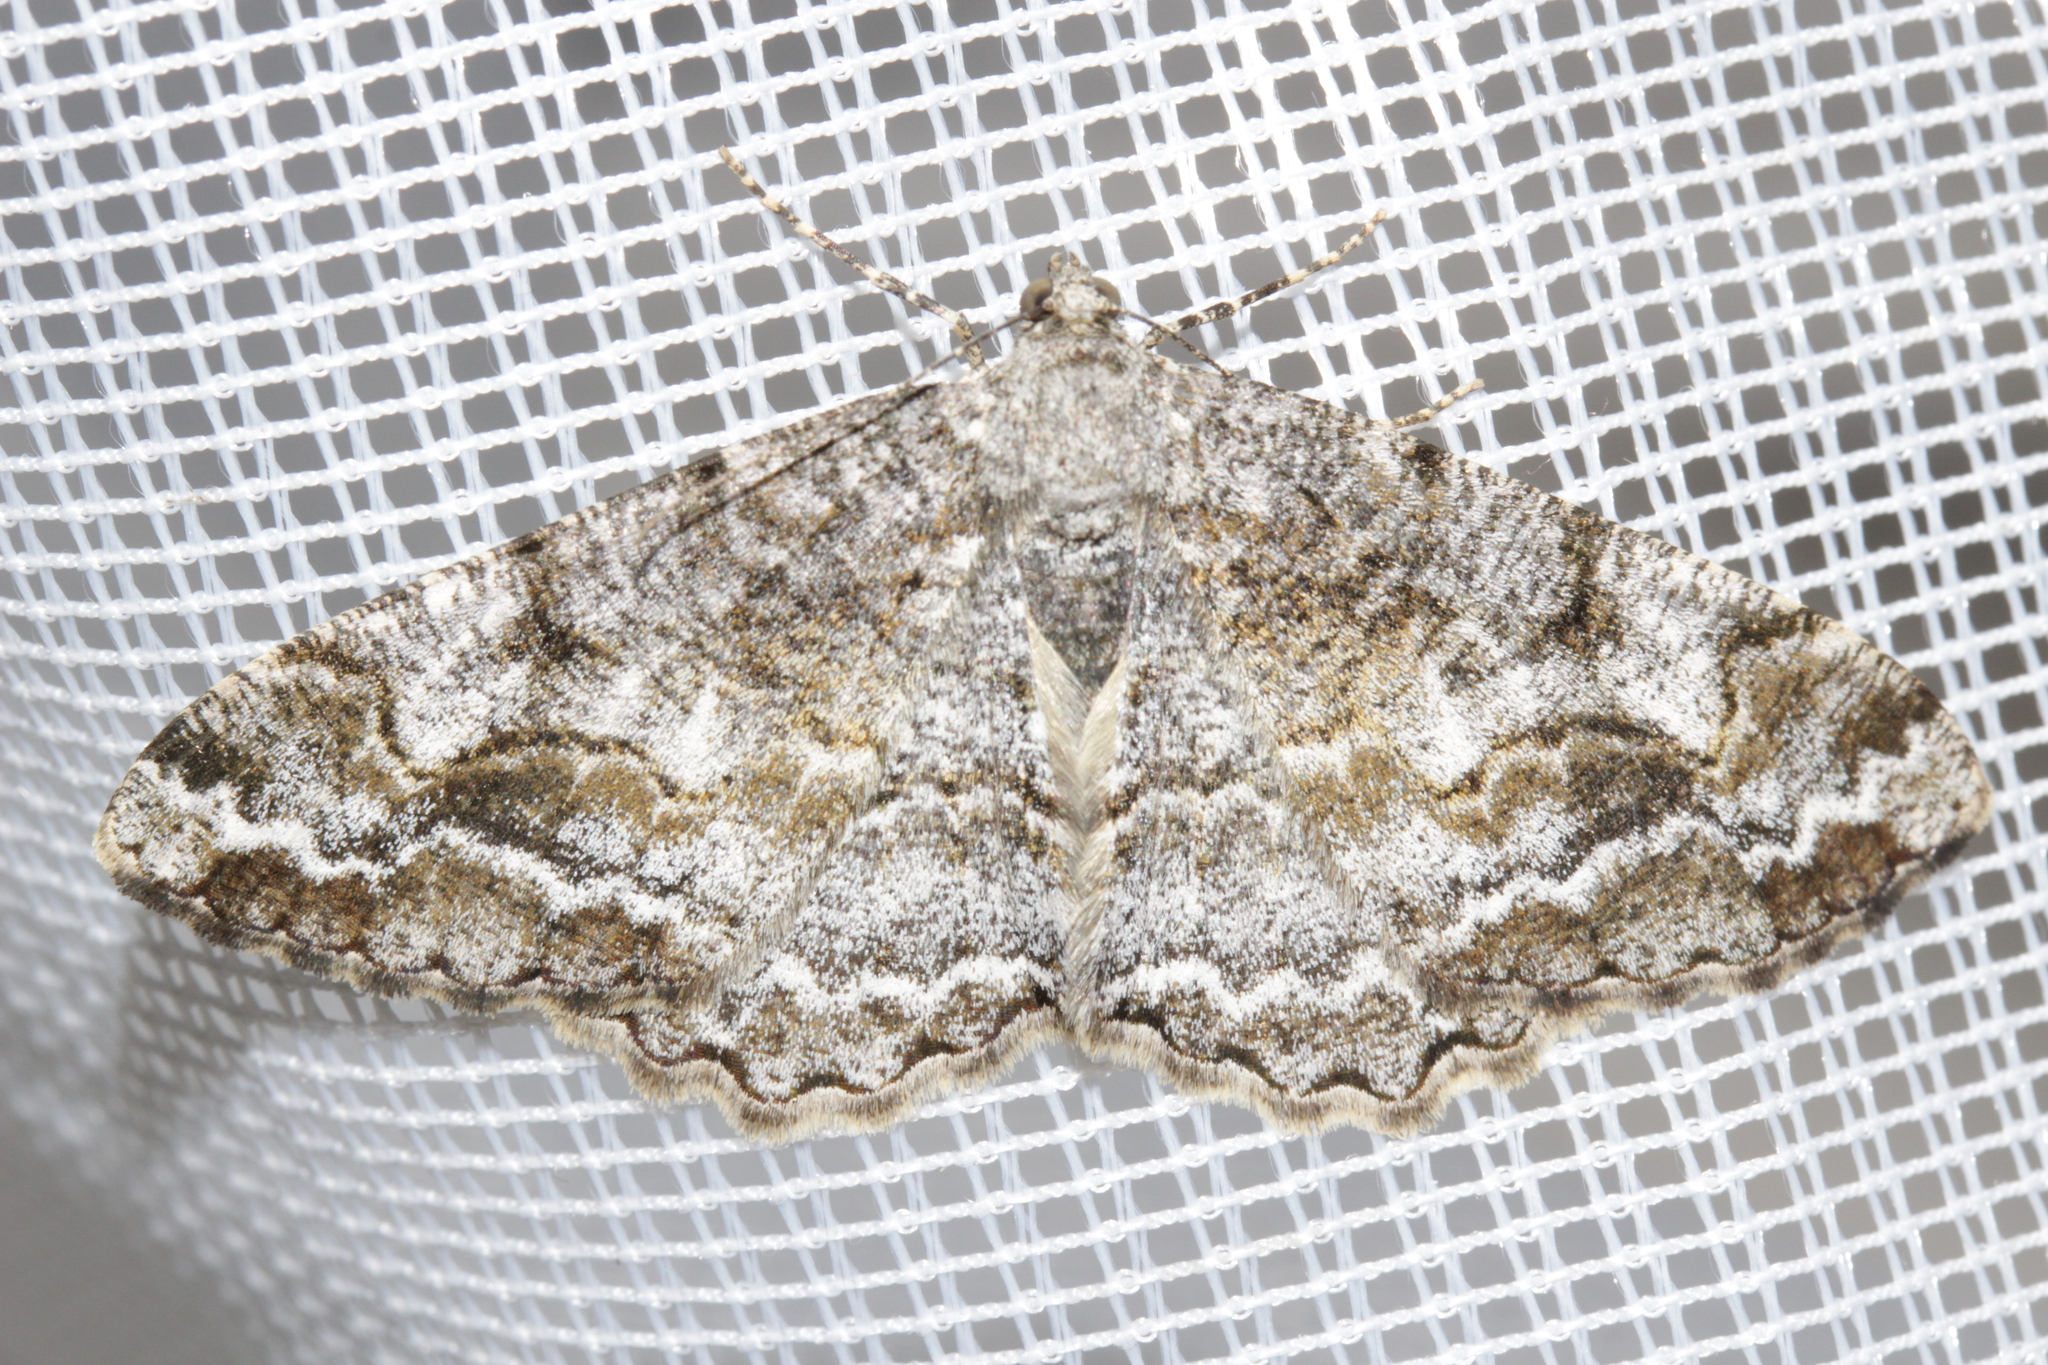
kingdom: Animalia
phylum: Arthropoda
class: Insecta
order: Lepidoptera
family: Geometridae
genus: Alcis
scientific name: Alcis repandata
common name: Mottled beauty
